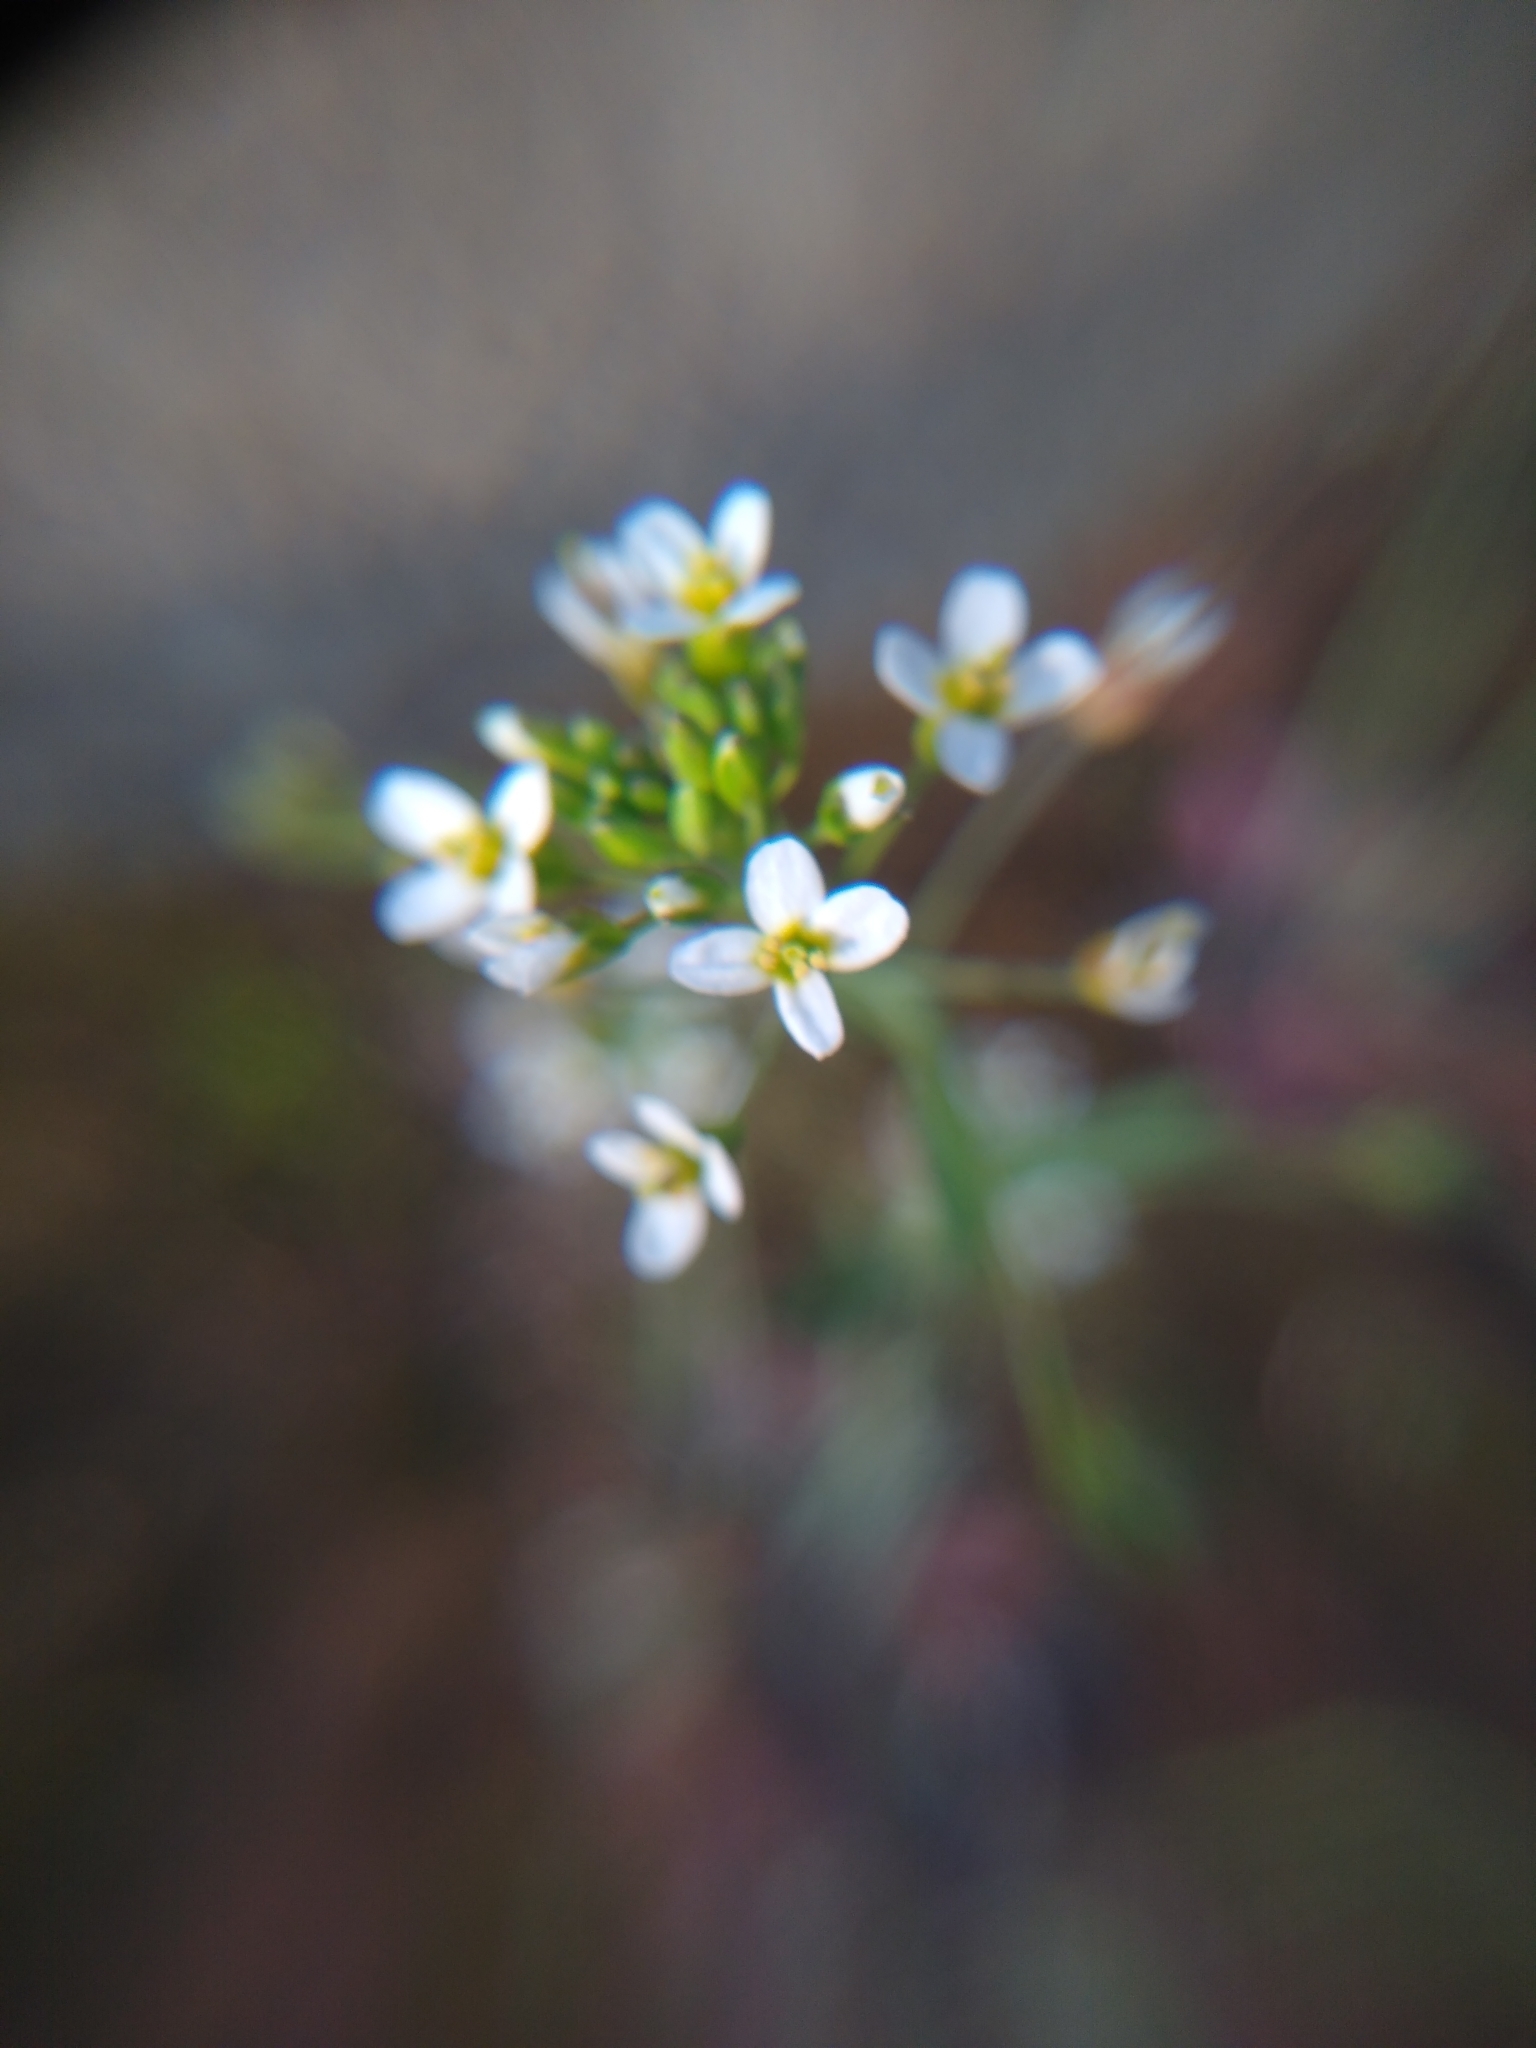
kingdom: Plantae
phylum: Tracheophyta
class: Magnoliopsida
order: Brassicales
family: Brassicaceae
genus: Arabidopsis
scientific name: Arabidopsis thaliana
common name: Thale cress
